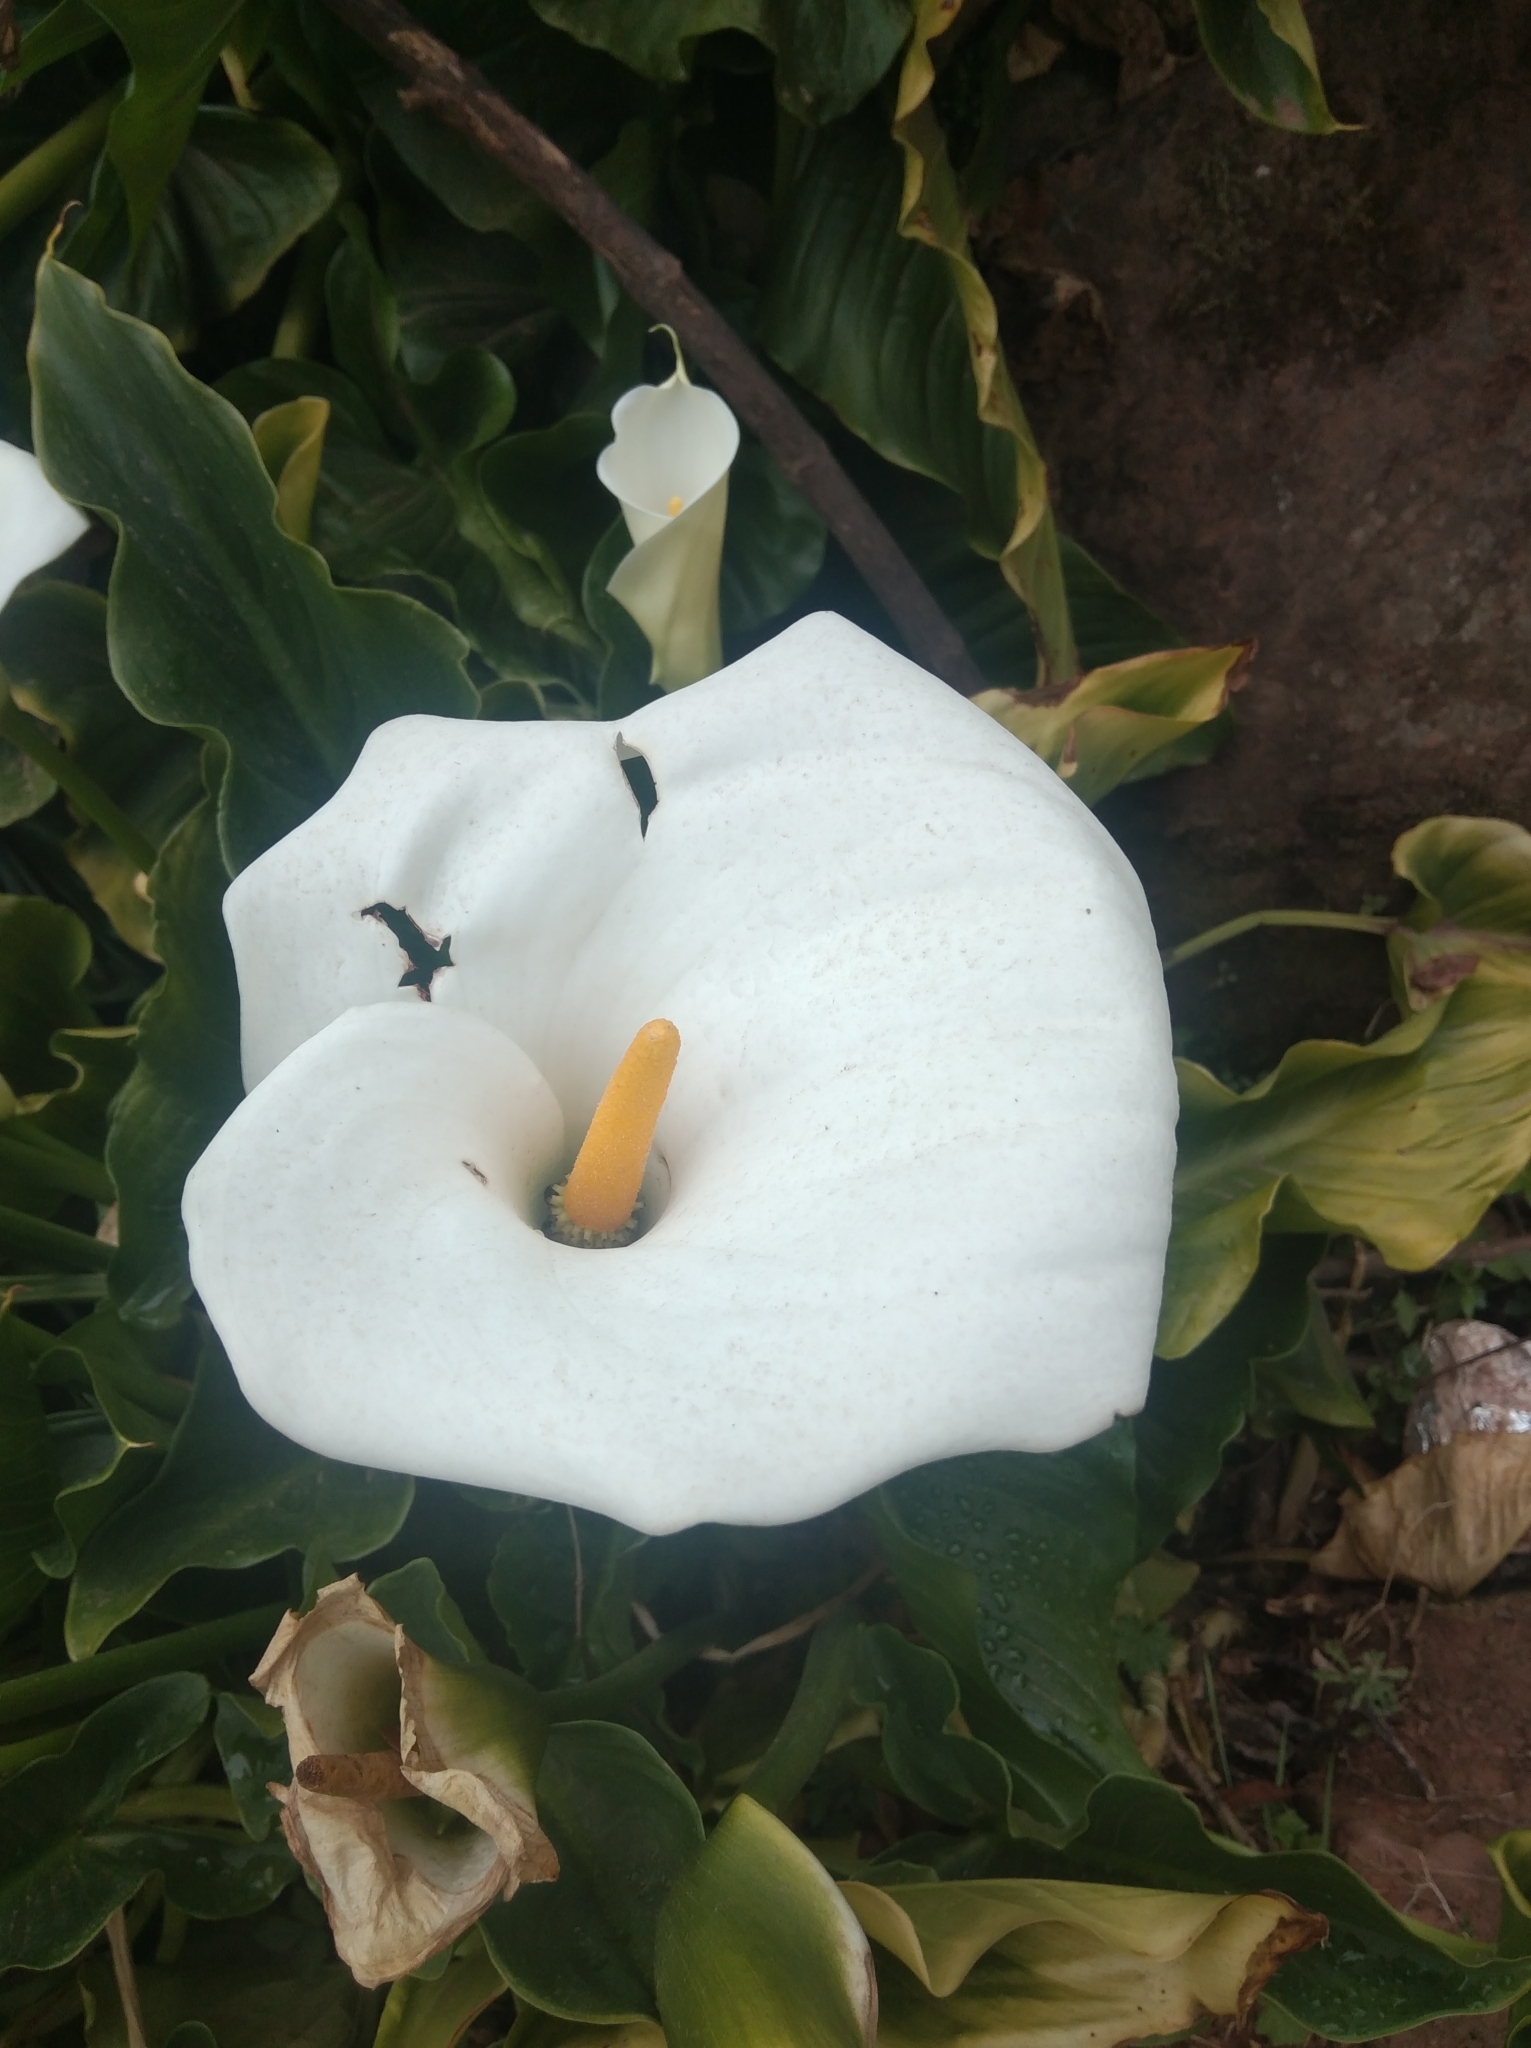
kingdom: Plantae
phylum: Tracheophyta
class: Liliopsida
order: Alismatales
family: Araceae
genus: Zantedeschia
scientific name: Zantedeschia aethiopica
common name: Altar-lily
